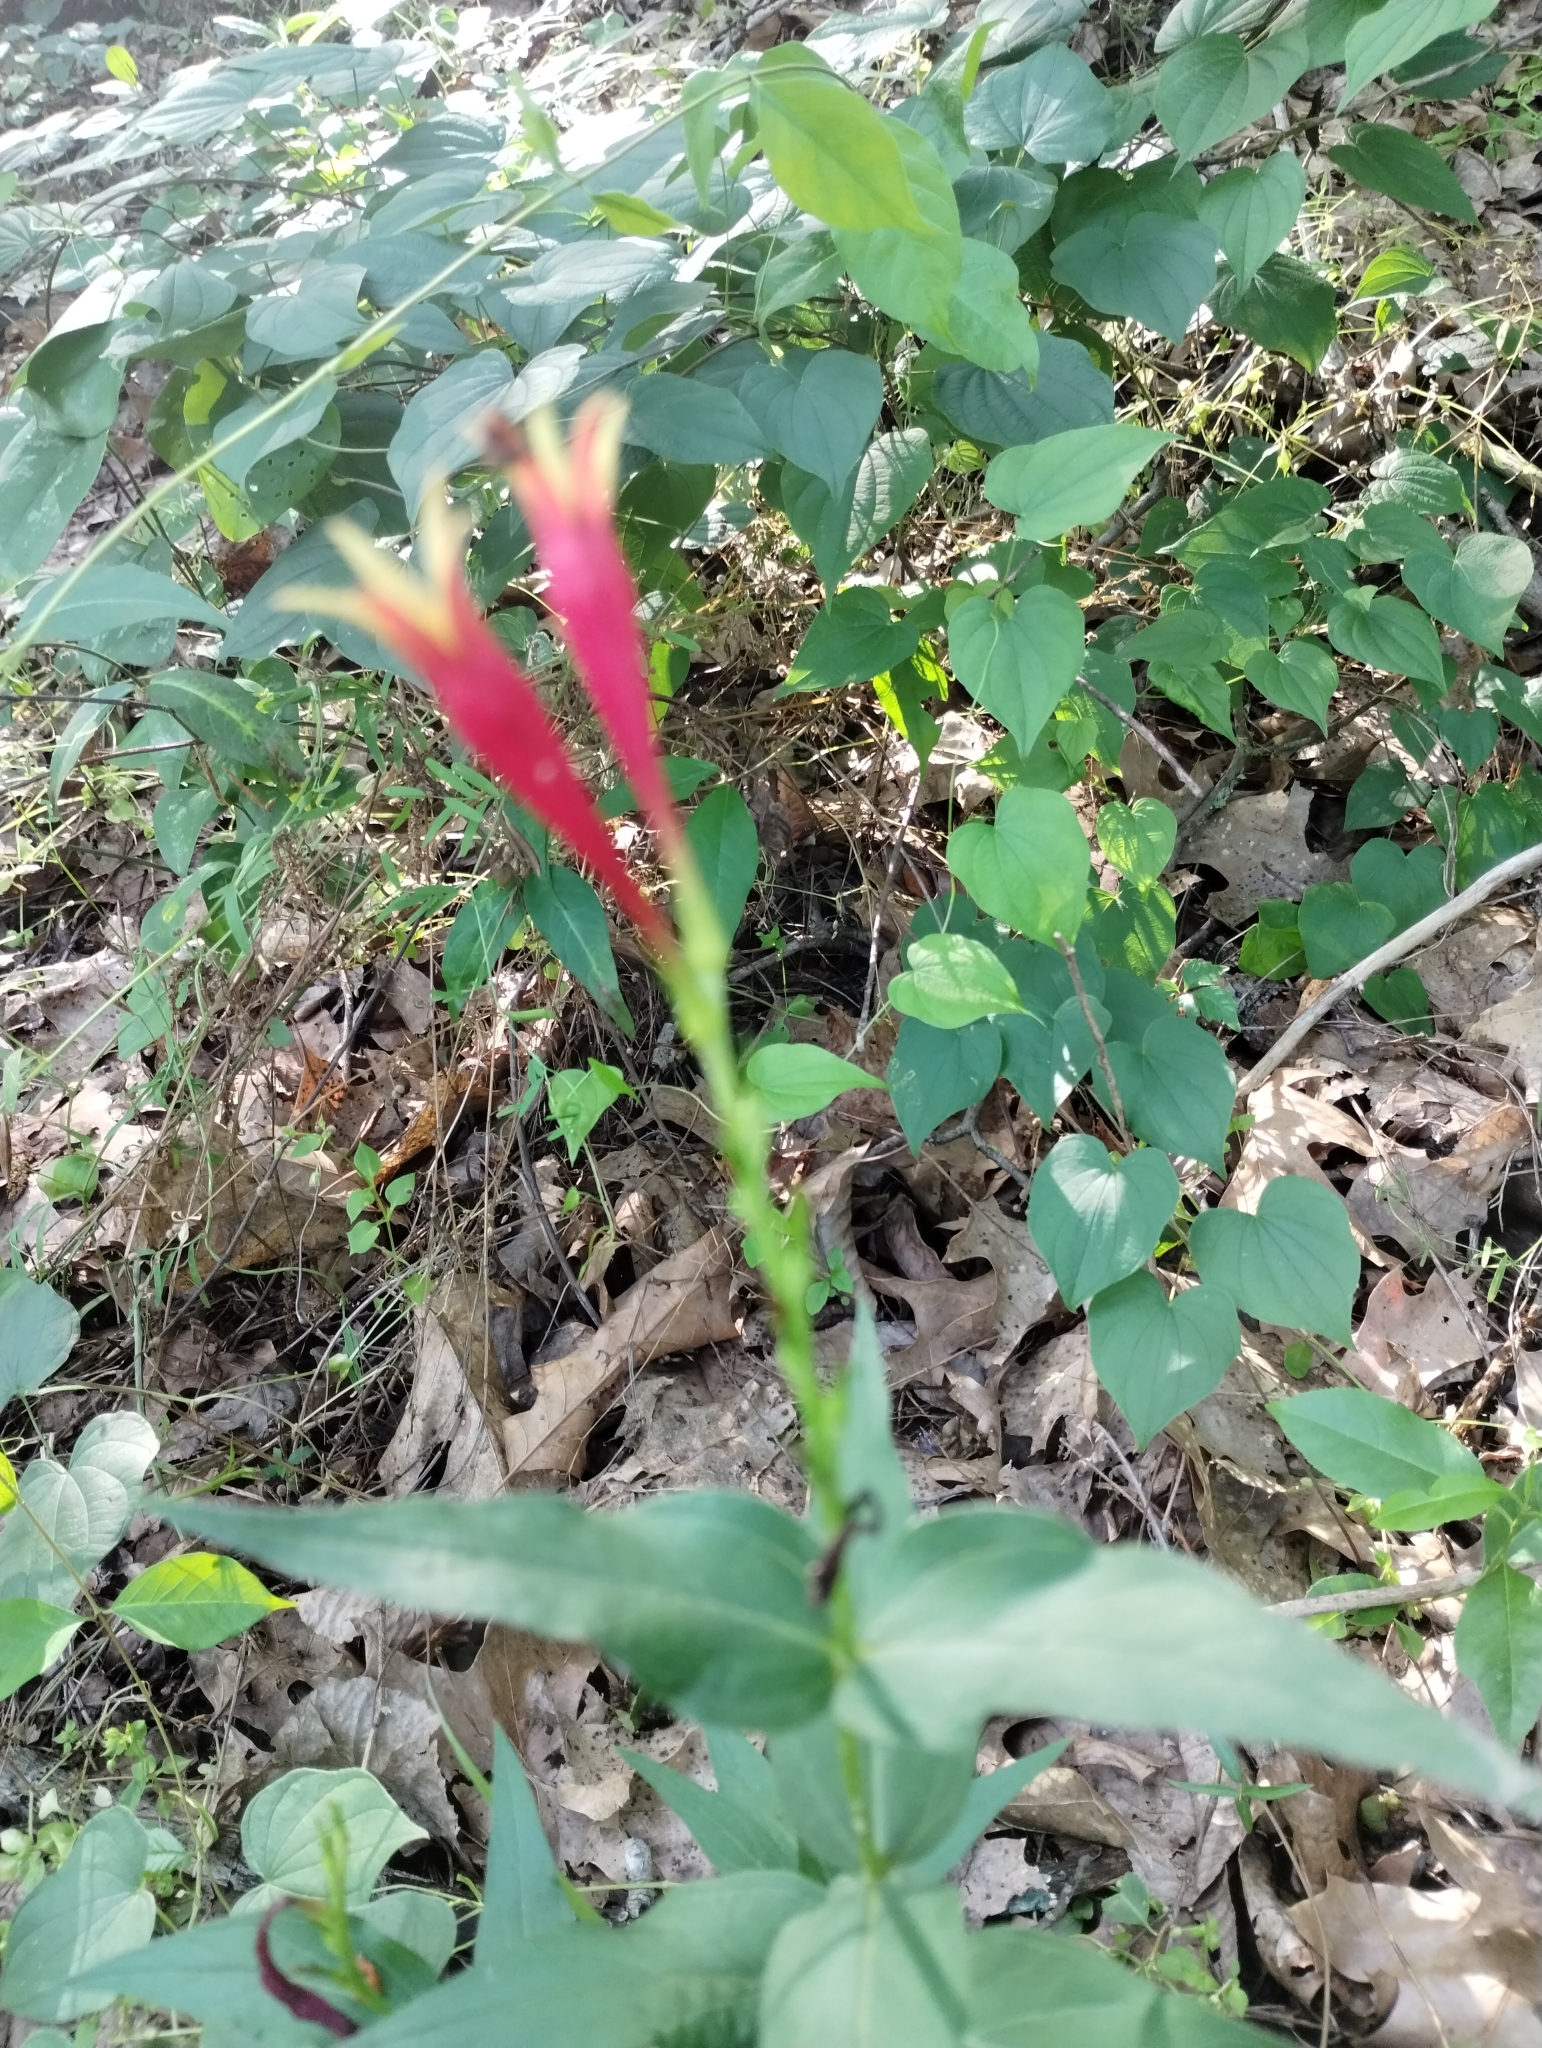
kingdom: Plantae
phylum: Tracheophyta
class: Magnoliopsida
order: Gentianales
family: Loganiaceae
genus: Spigelia
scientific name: Spigelia marilandica
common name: Indian-pink
